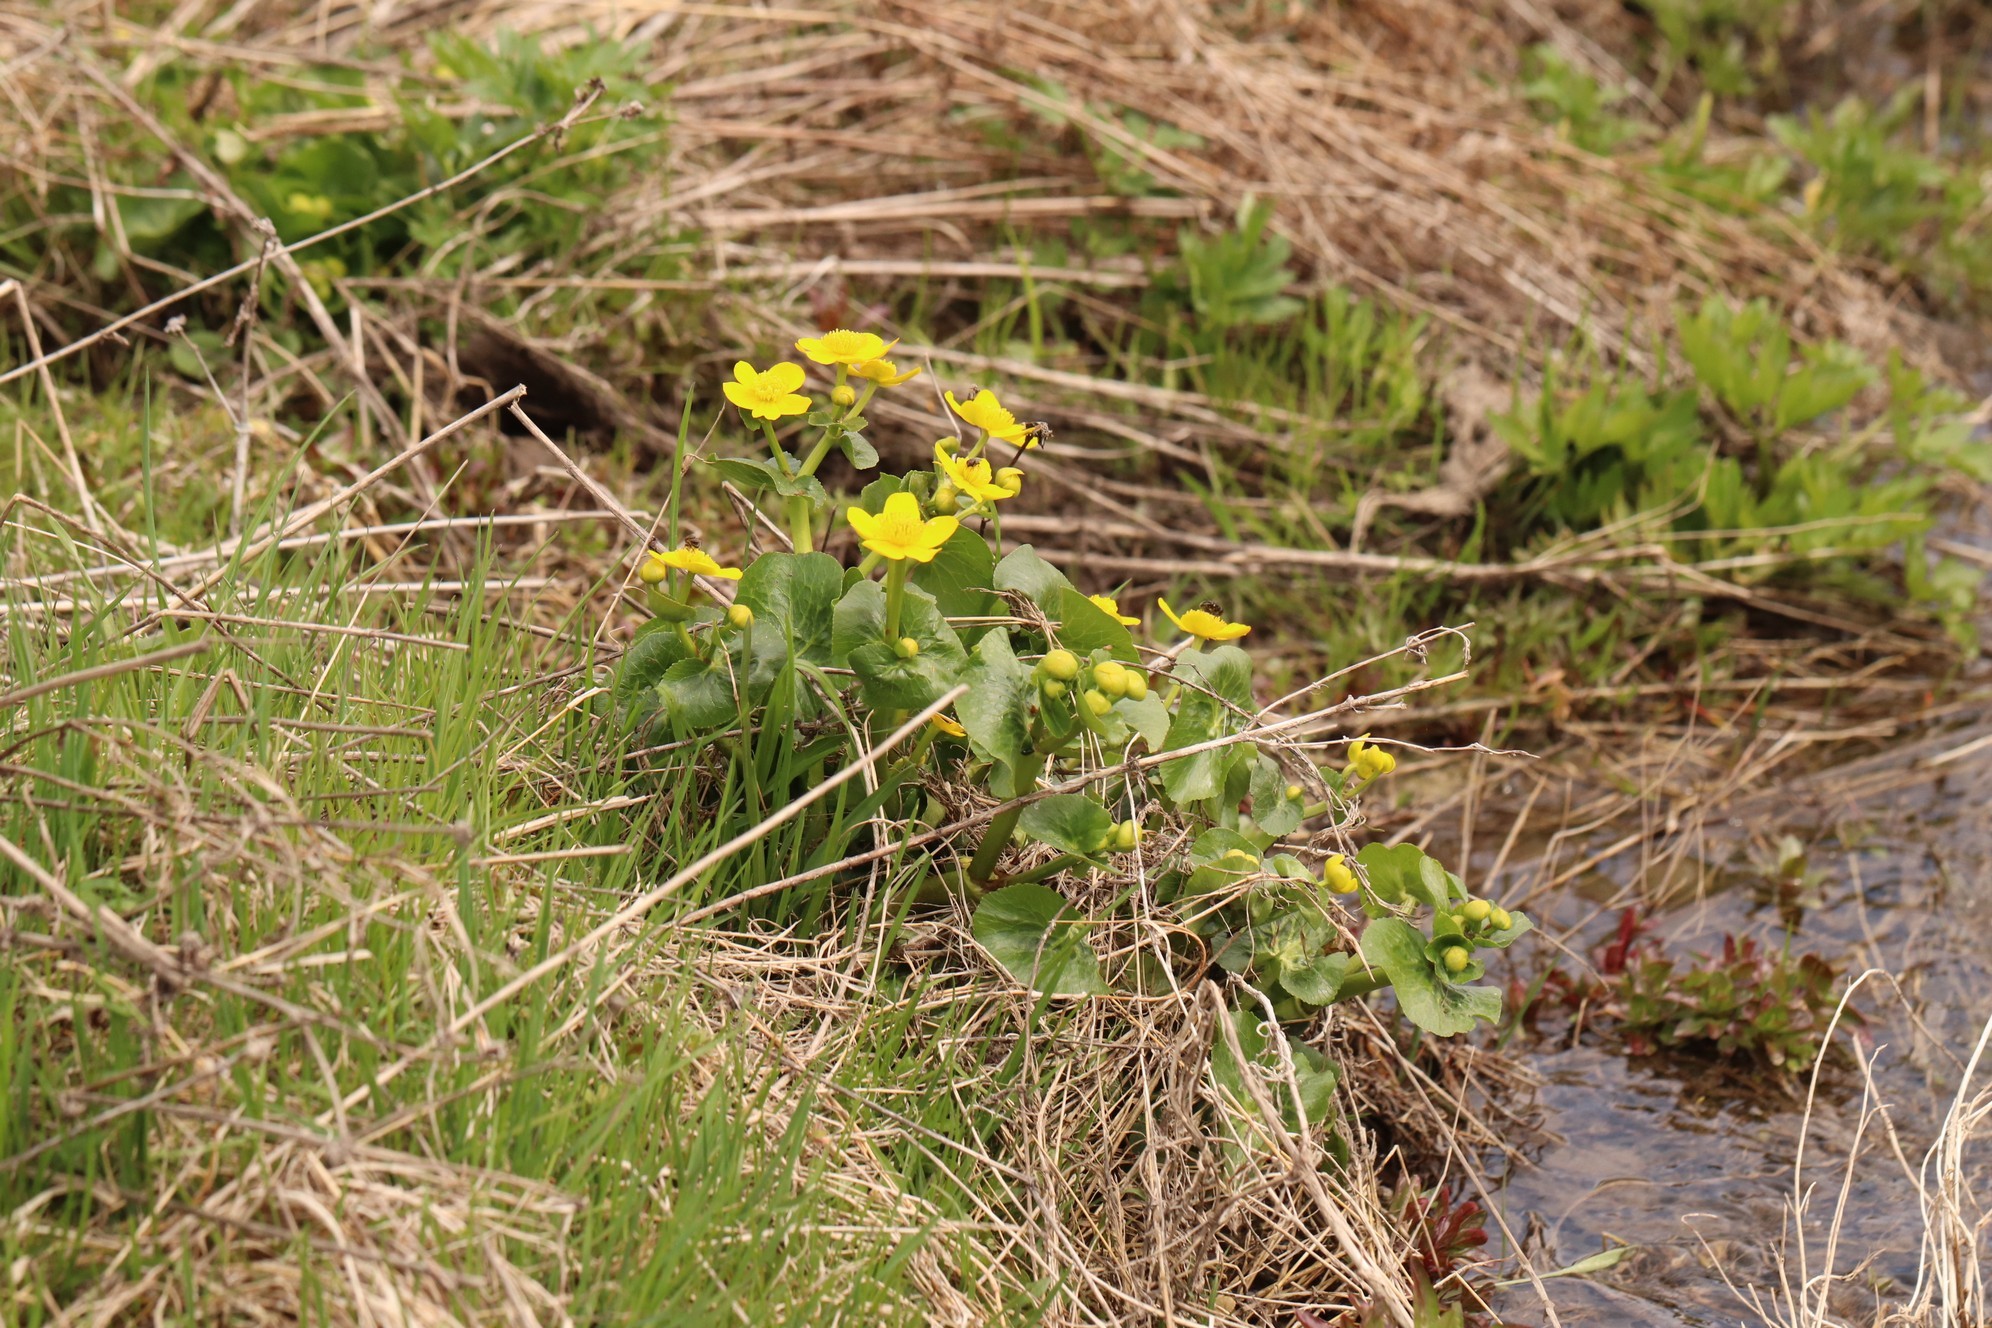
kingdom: Plantae
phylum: Tracheophyta
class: Magnoliopsida
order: Ranunculales
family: Ranunculaceae
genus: Caltha
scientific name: Caltha palustris
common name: Marsh marigold
